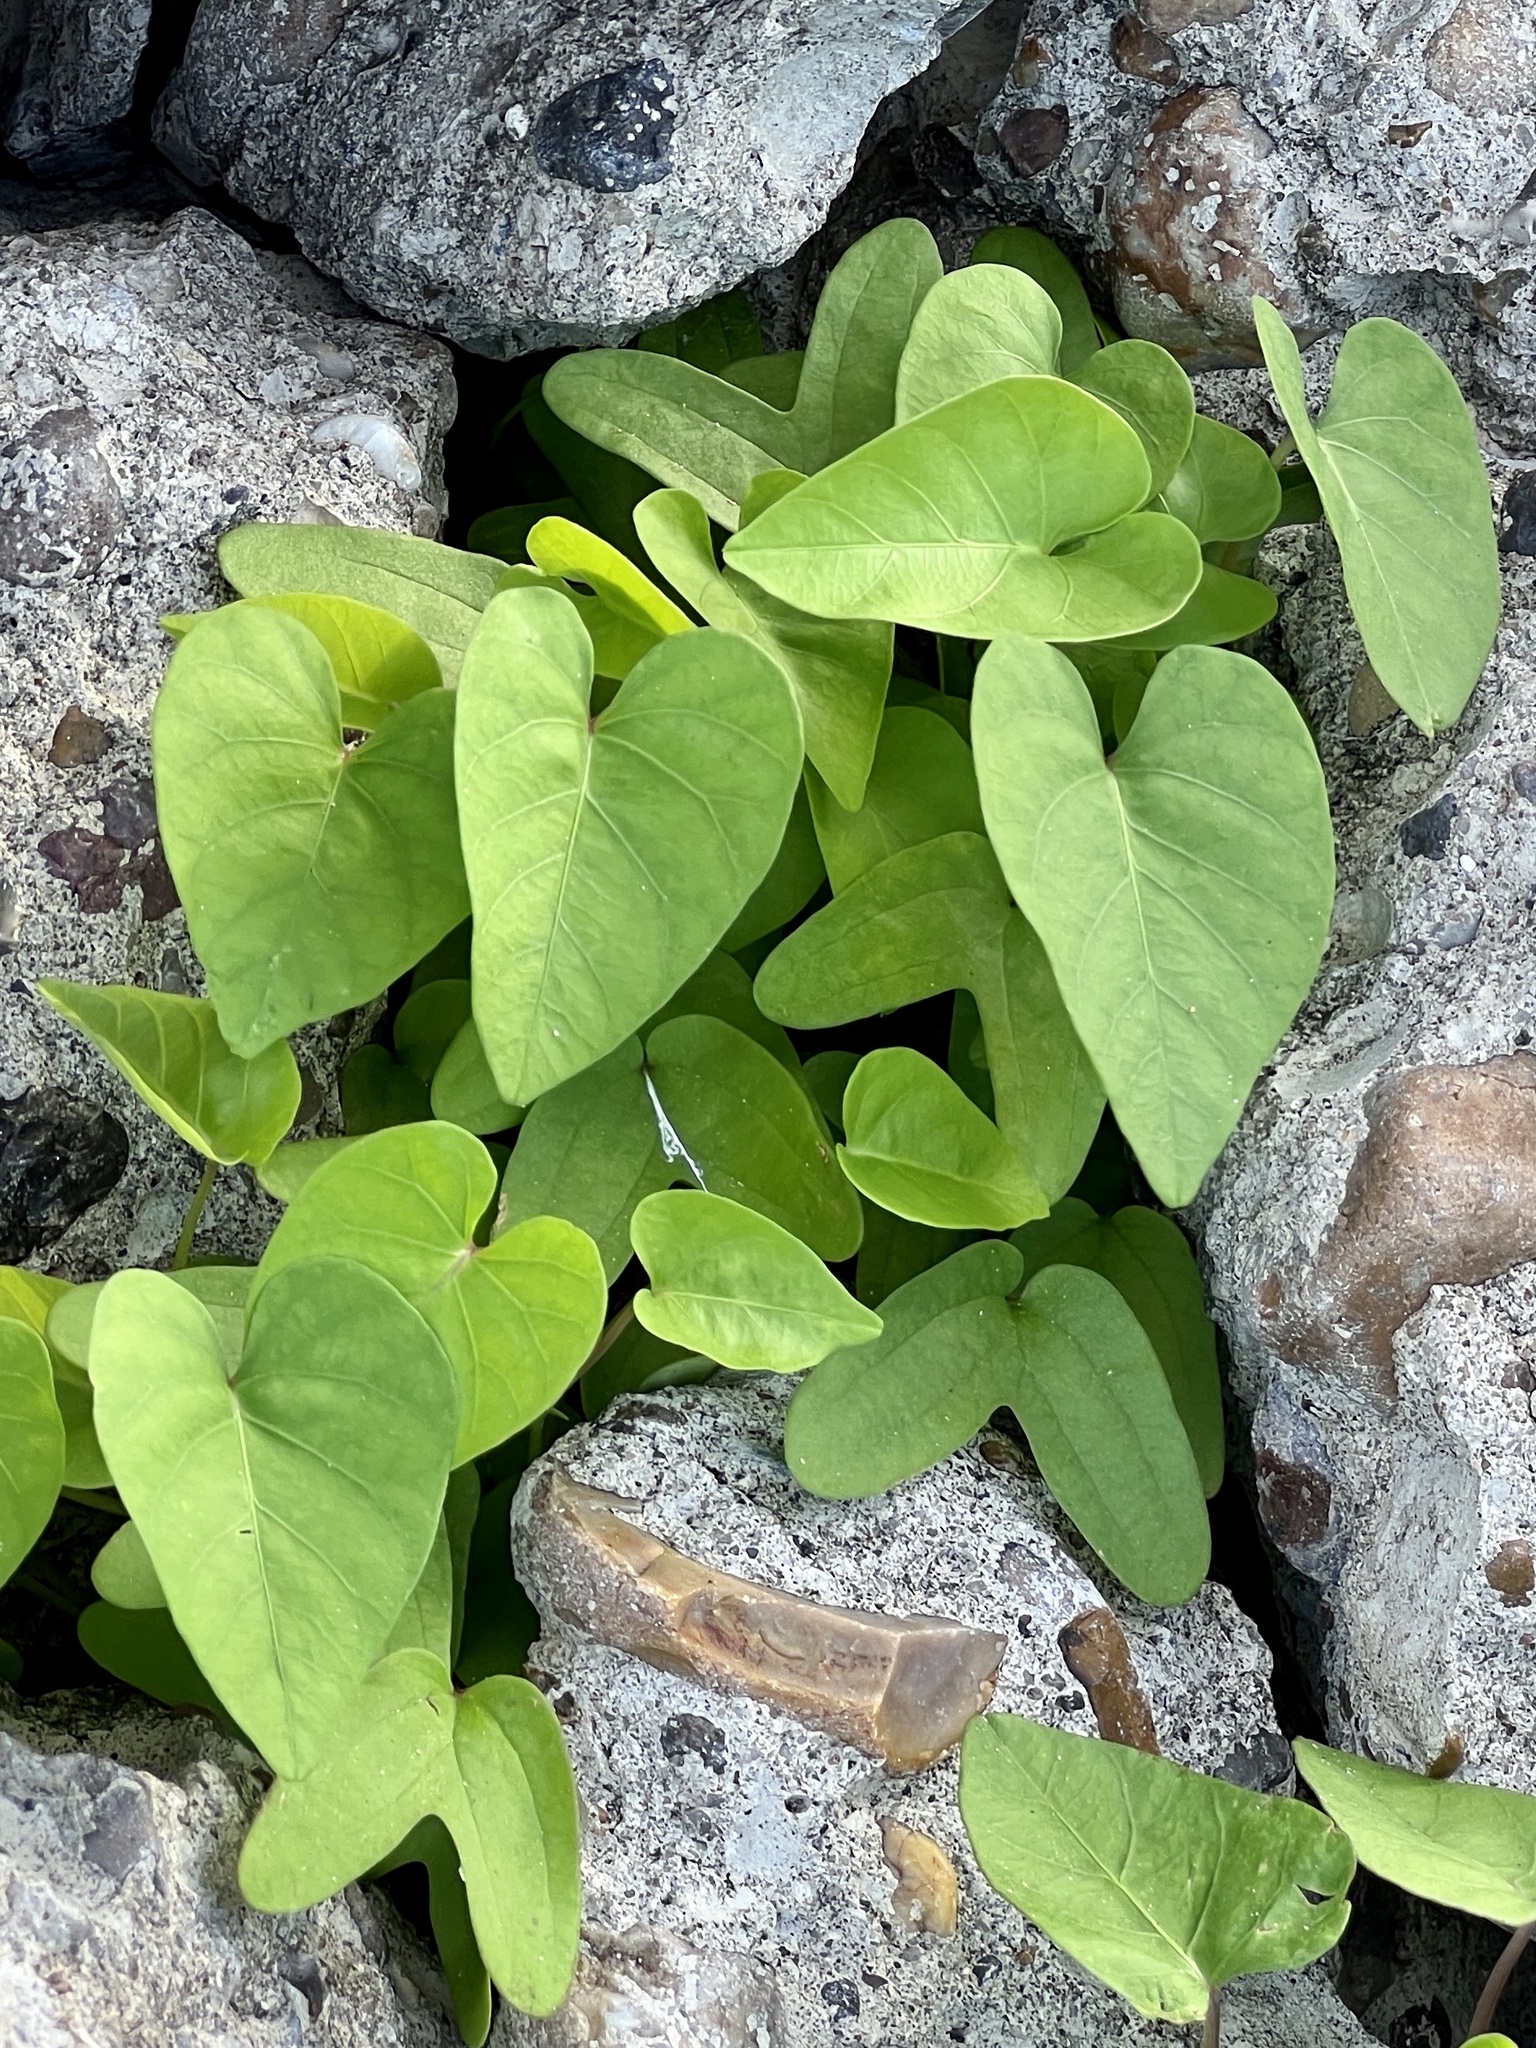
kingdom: Plantae
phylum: Tracheophyta
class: Magnoliopsida
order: Solanales
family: Convolvulaceae
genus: Ipomoea
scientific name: Ipomoea amnicola
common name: Redcenter morning-glory
